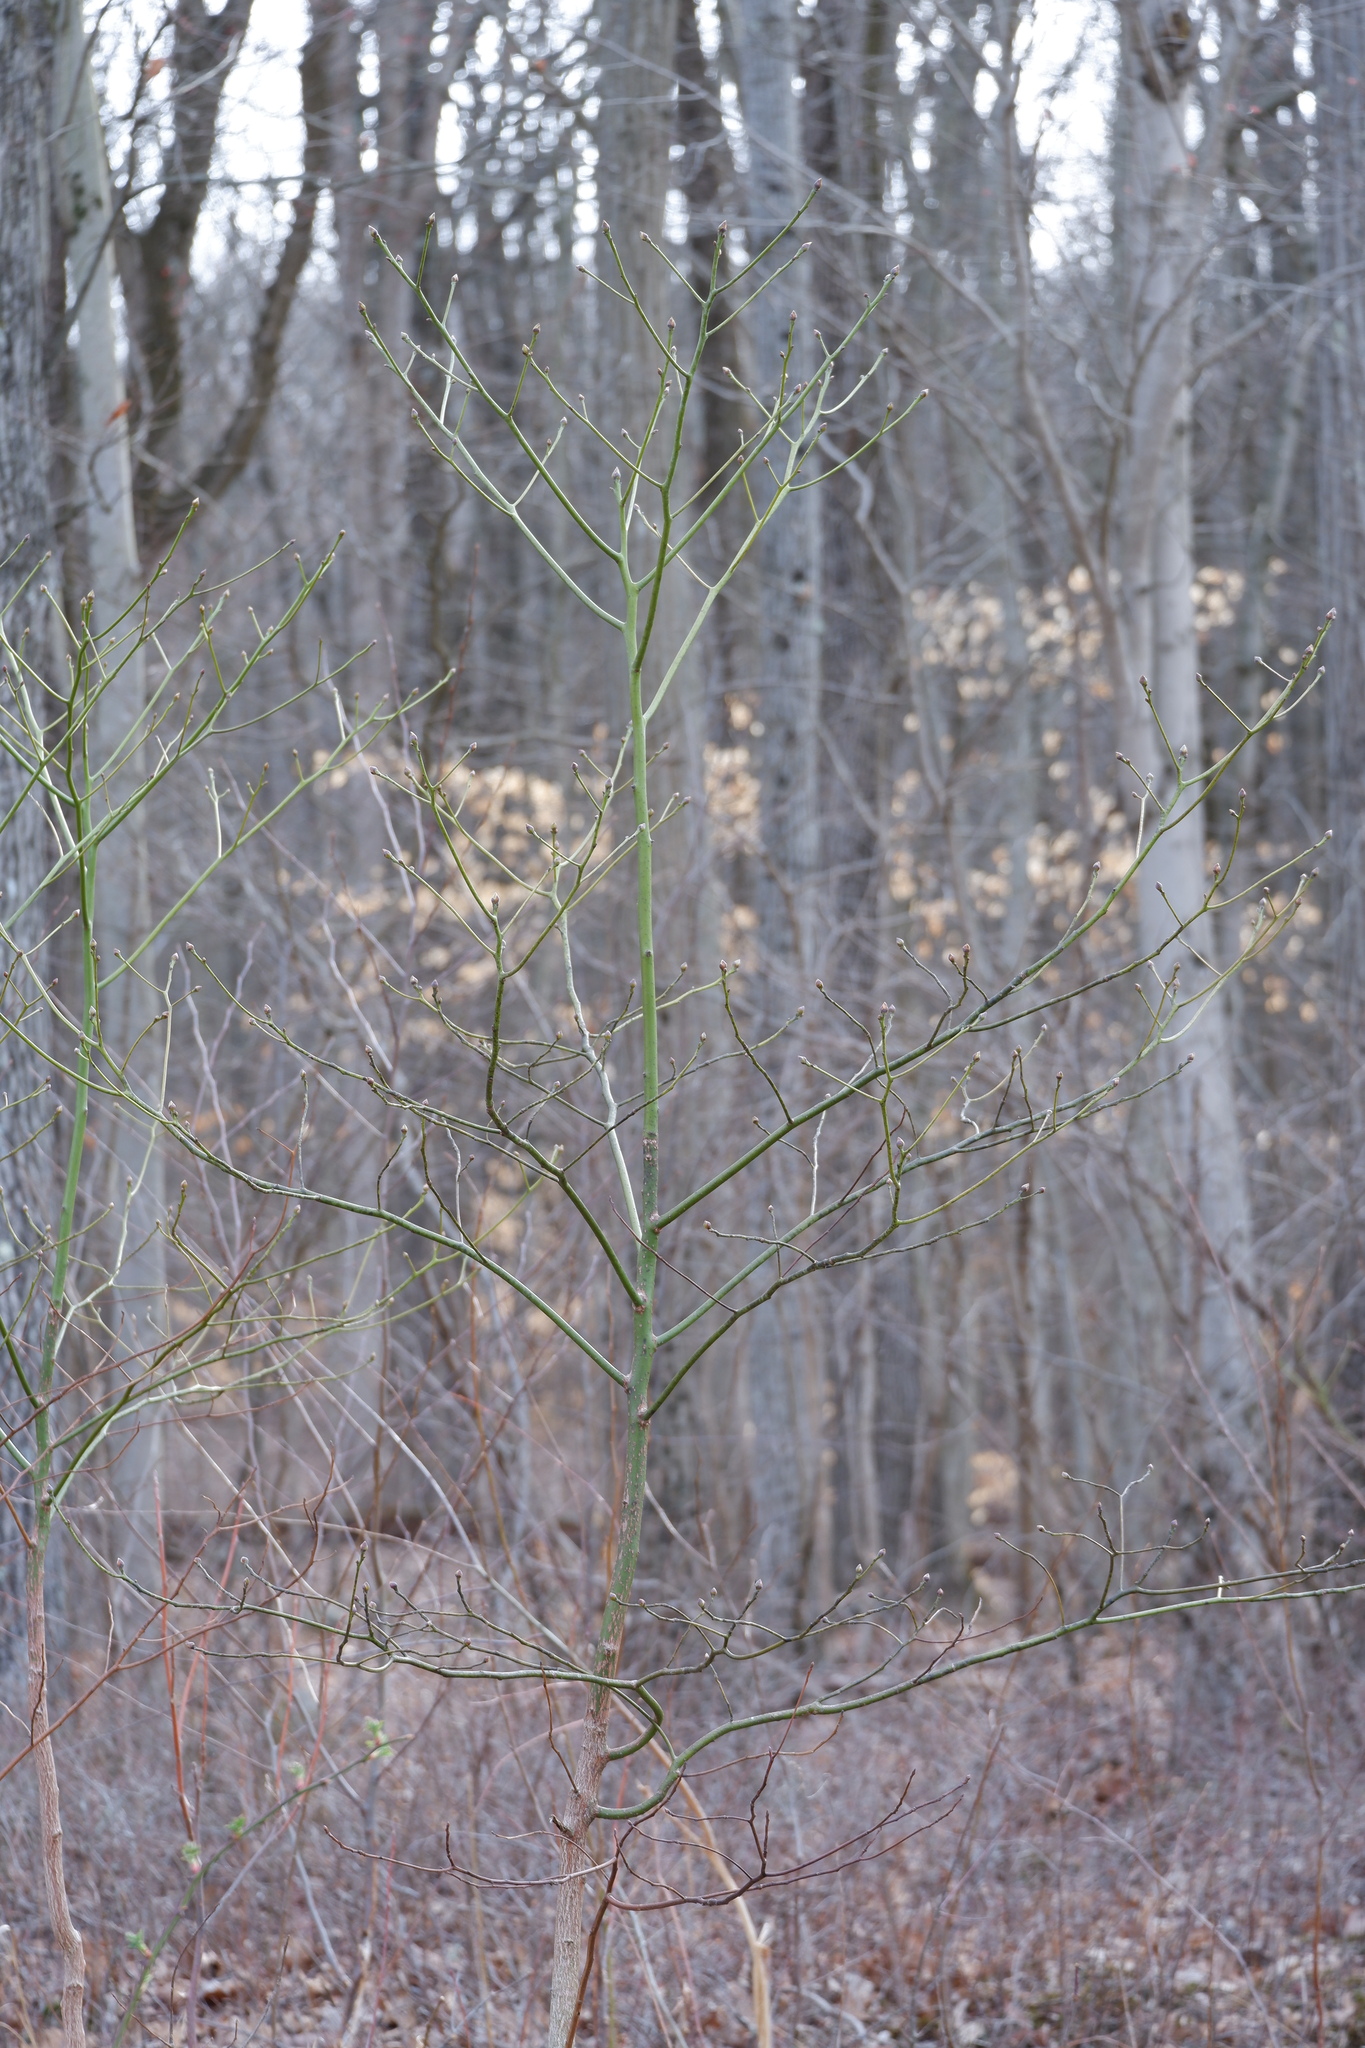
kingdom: Plantae
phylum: Tracheophyta
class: Magnoliopsida
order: Laurales
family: Lauraceae
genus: Sassafras
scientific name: Sassafras albidum
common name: Sassafras
